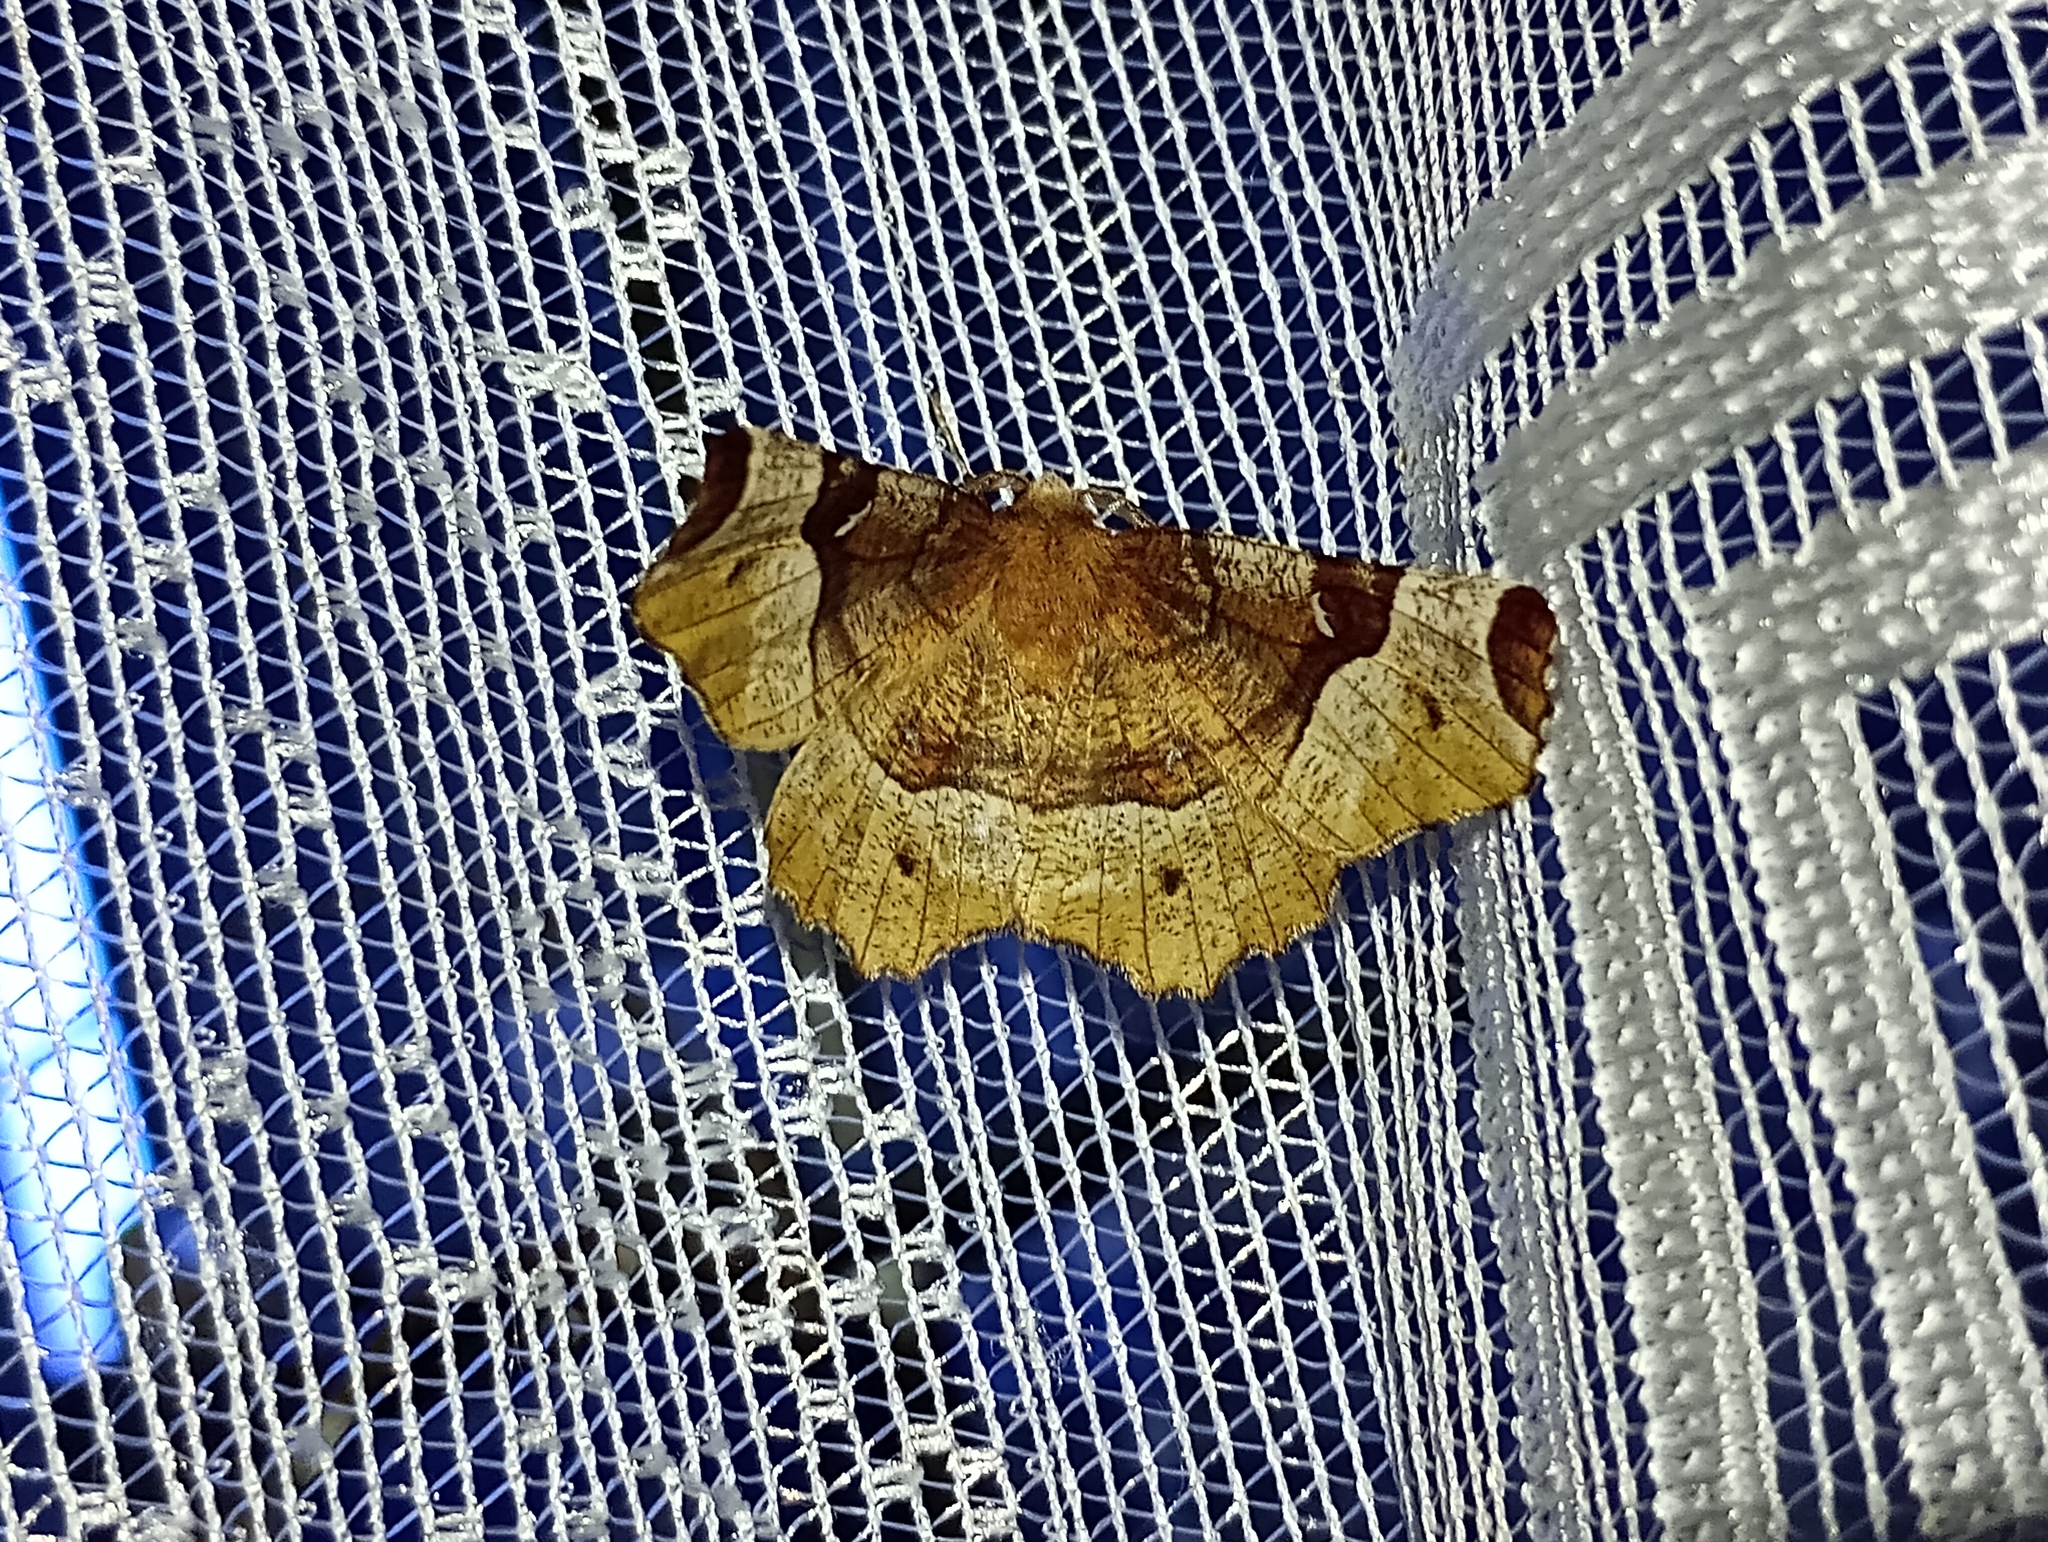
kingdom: Animalia
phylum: Arthropoda
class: Insecta
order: Lepidoptera
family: Geometridae
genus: Selenia
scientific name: Selenia tetralunaria
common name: Purple thorn
